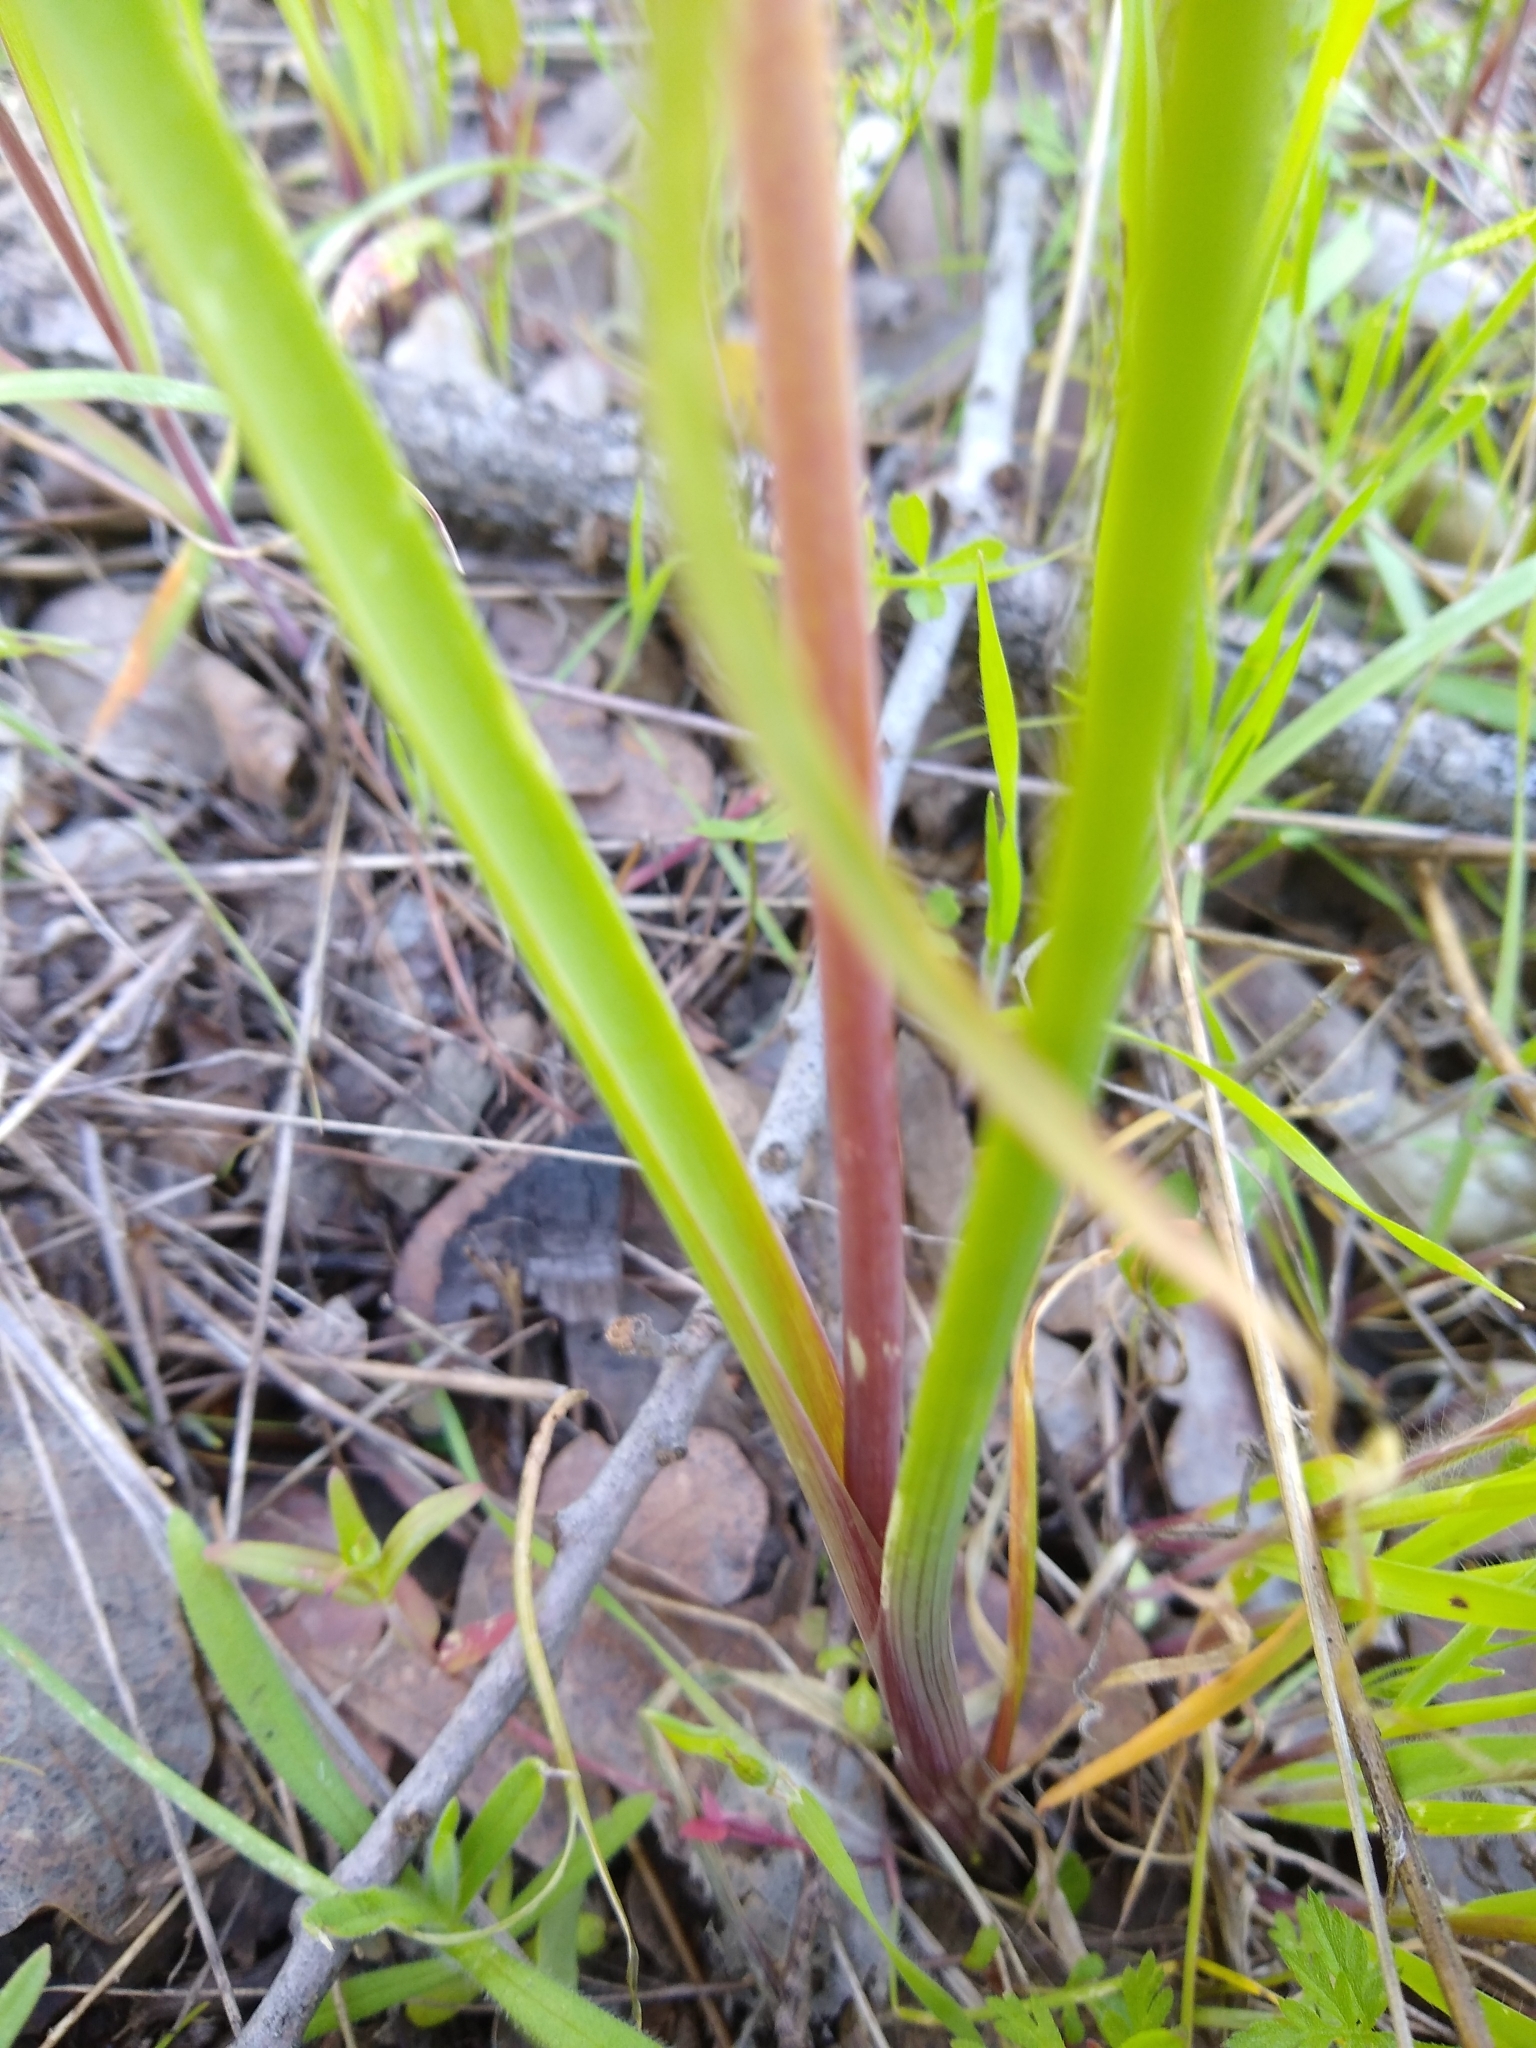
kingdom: Plantae
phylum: Tracheophyta
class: Liliopsida
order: Asparagales
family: Amaryllidaceae
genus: Allium
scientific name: Allium serra
